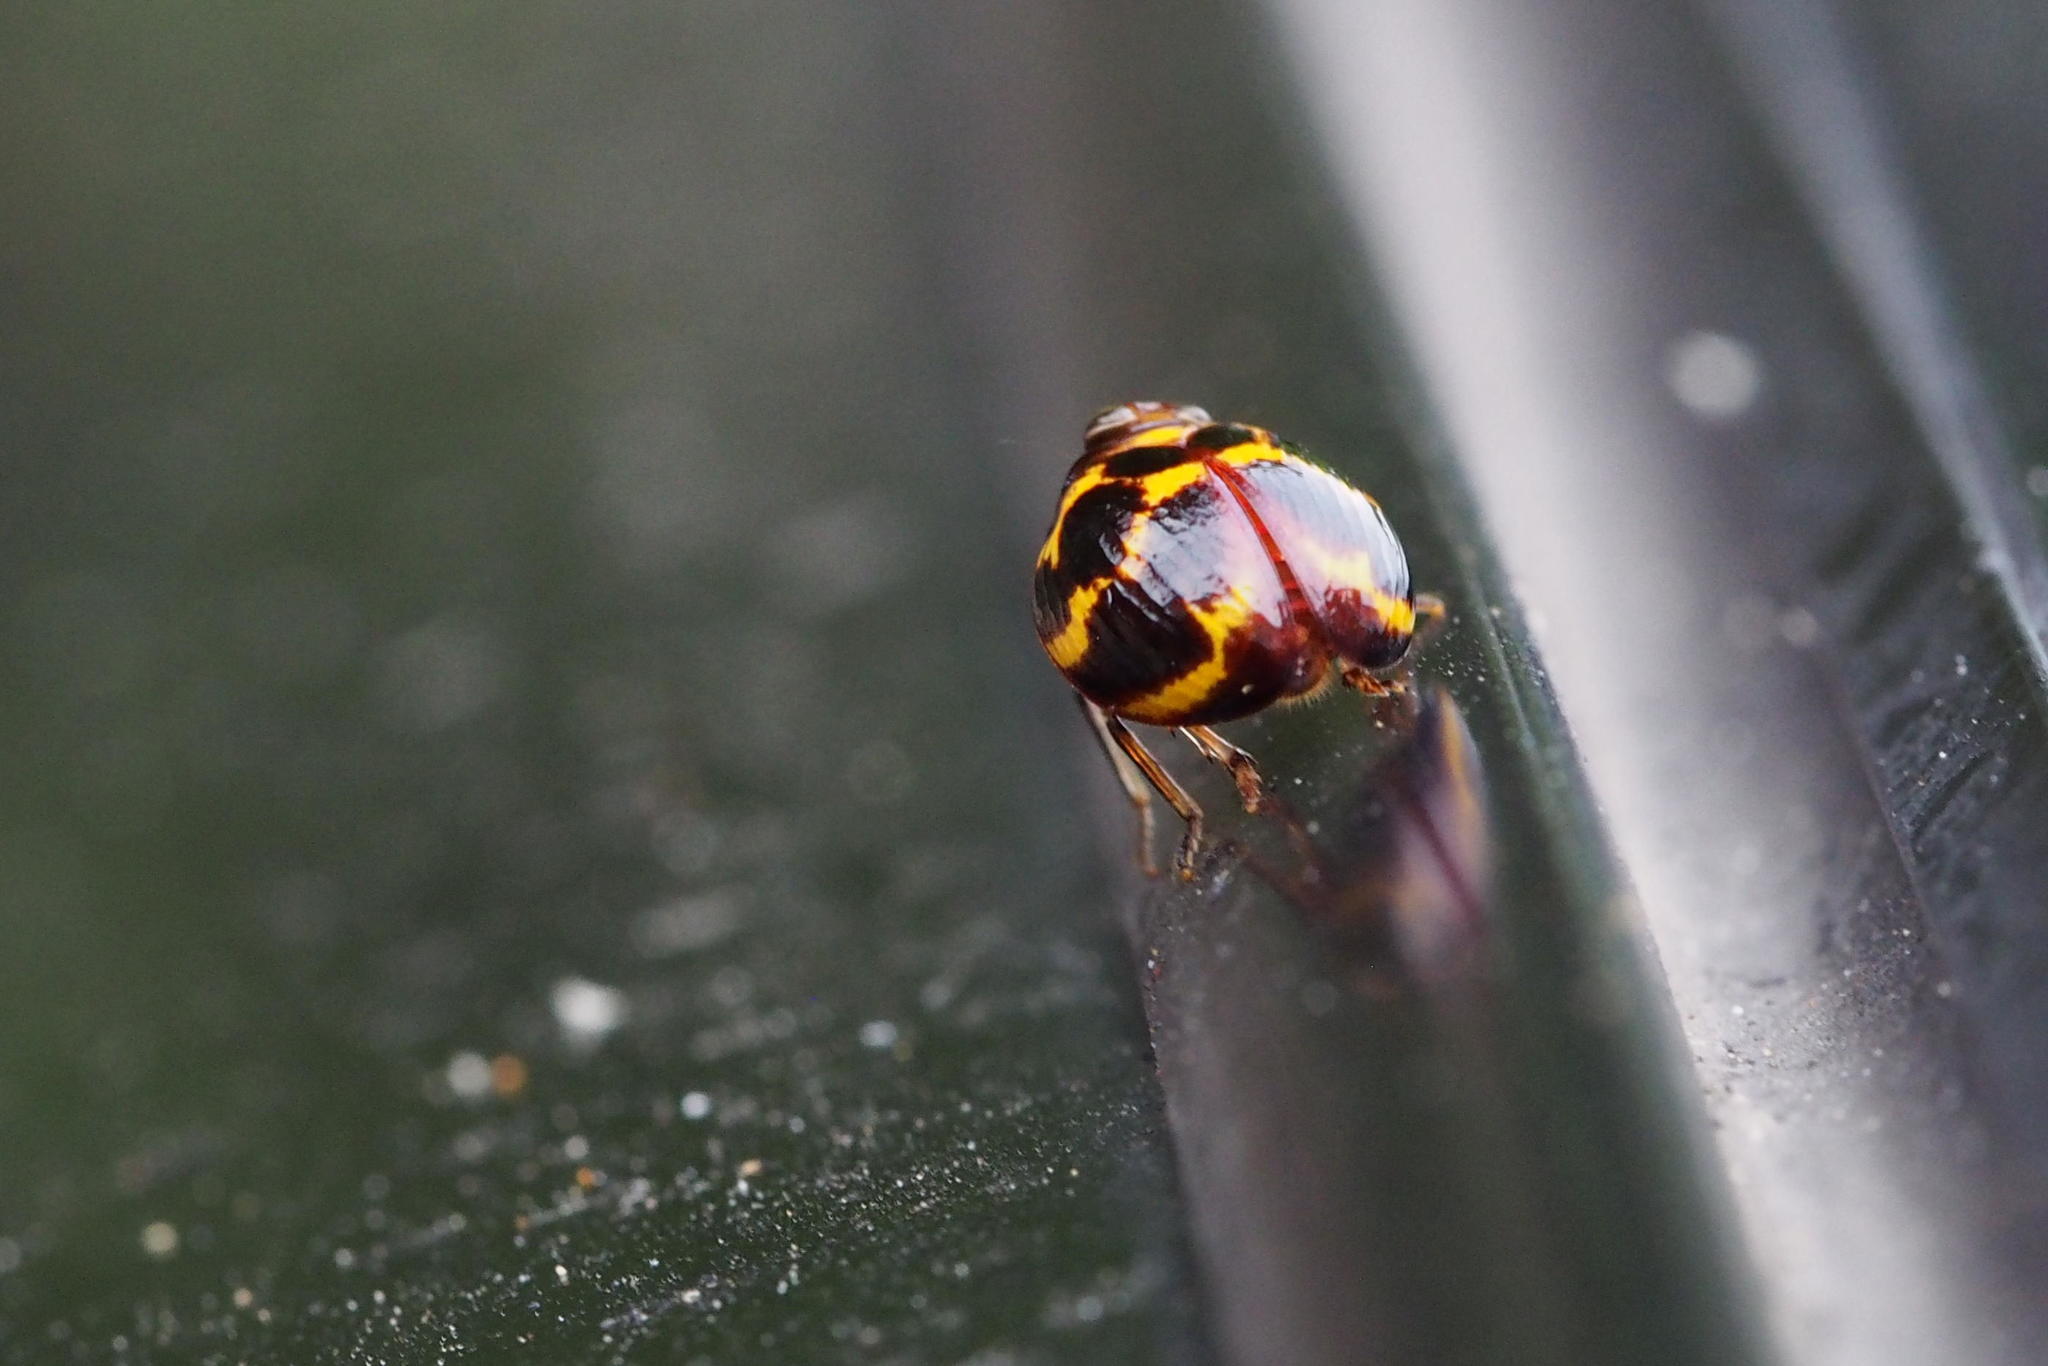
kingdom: Animalia
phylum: Arthropoda
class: Insecta
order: Hemiptera
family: Issidae
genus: Ishiharanus
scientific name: Ishiharanus iguchii
